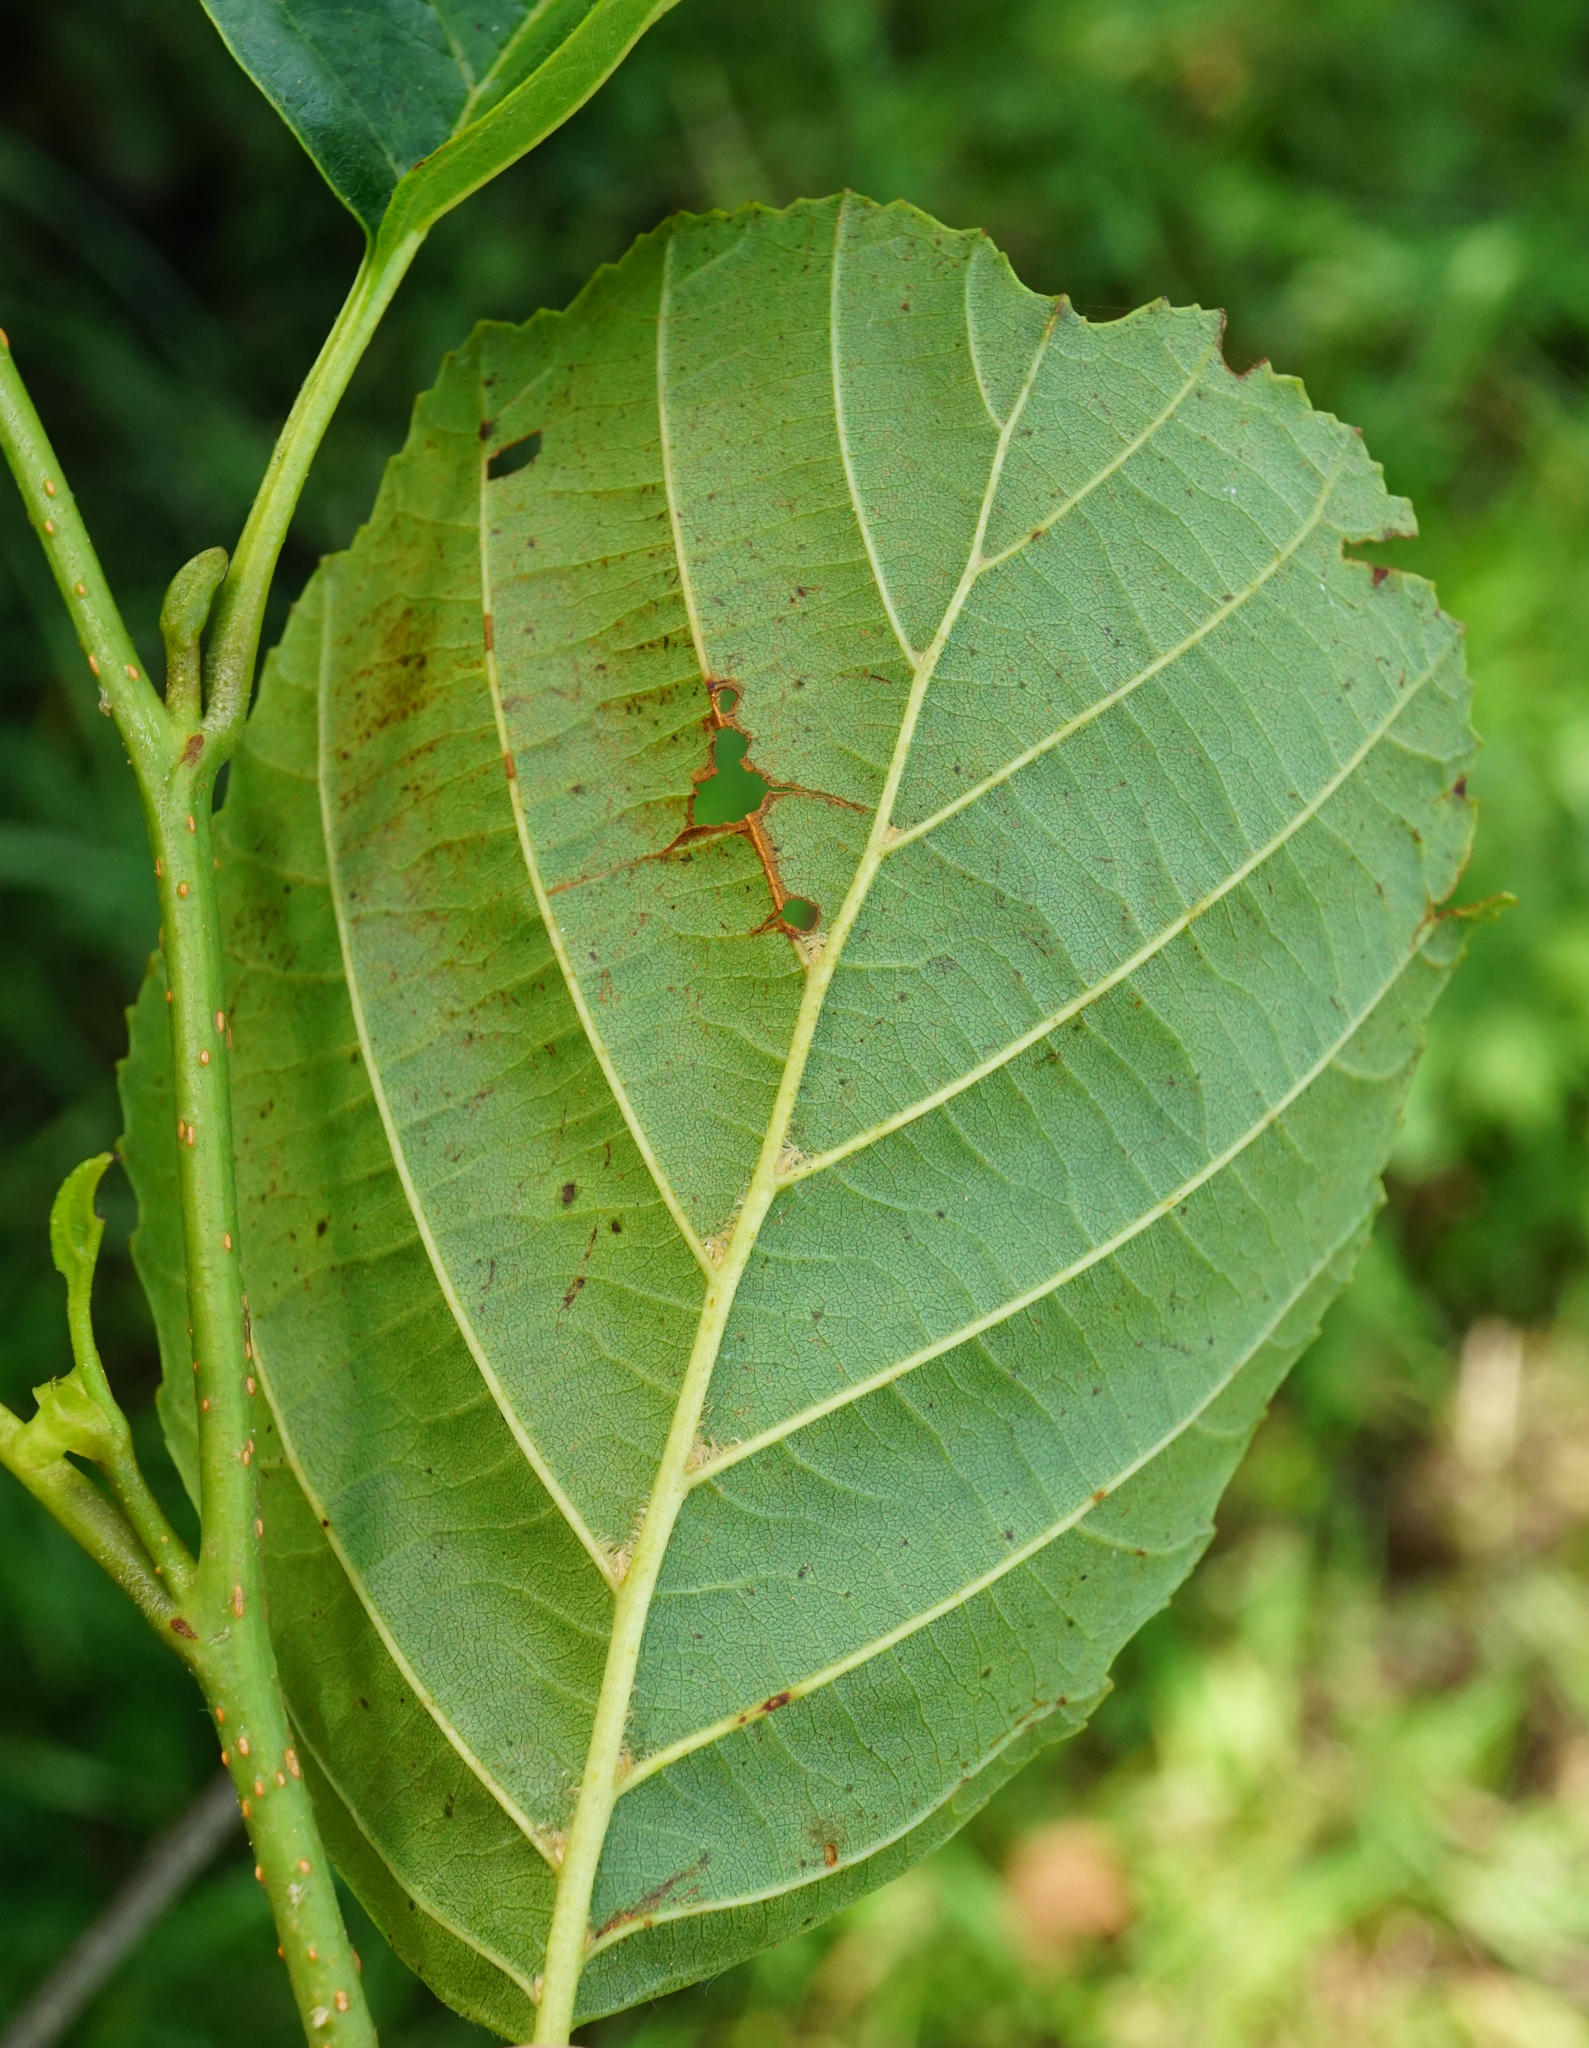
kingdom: Plantae
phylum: Tracheophyta
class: Magnoliopsida
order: Fagales
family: Betulaceae
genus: Alnus
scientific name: Alnus glutinosa
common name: Black alder
